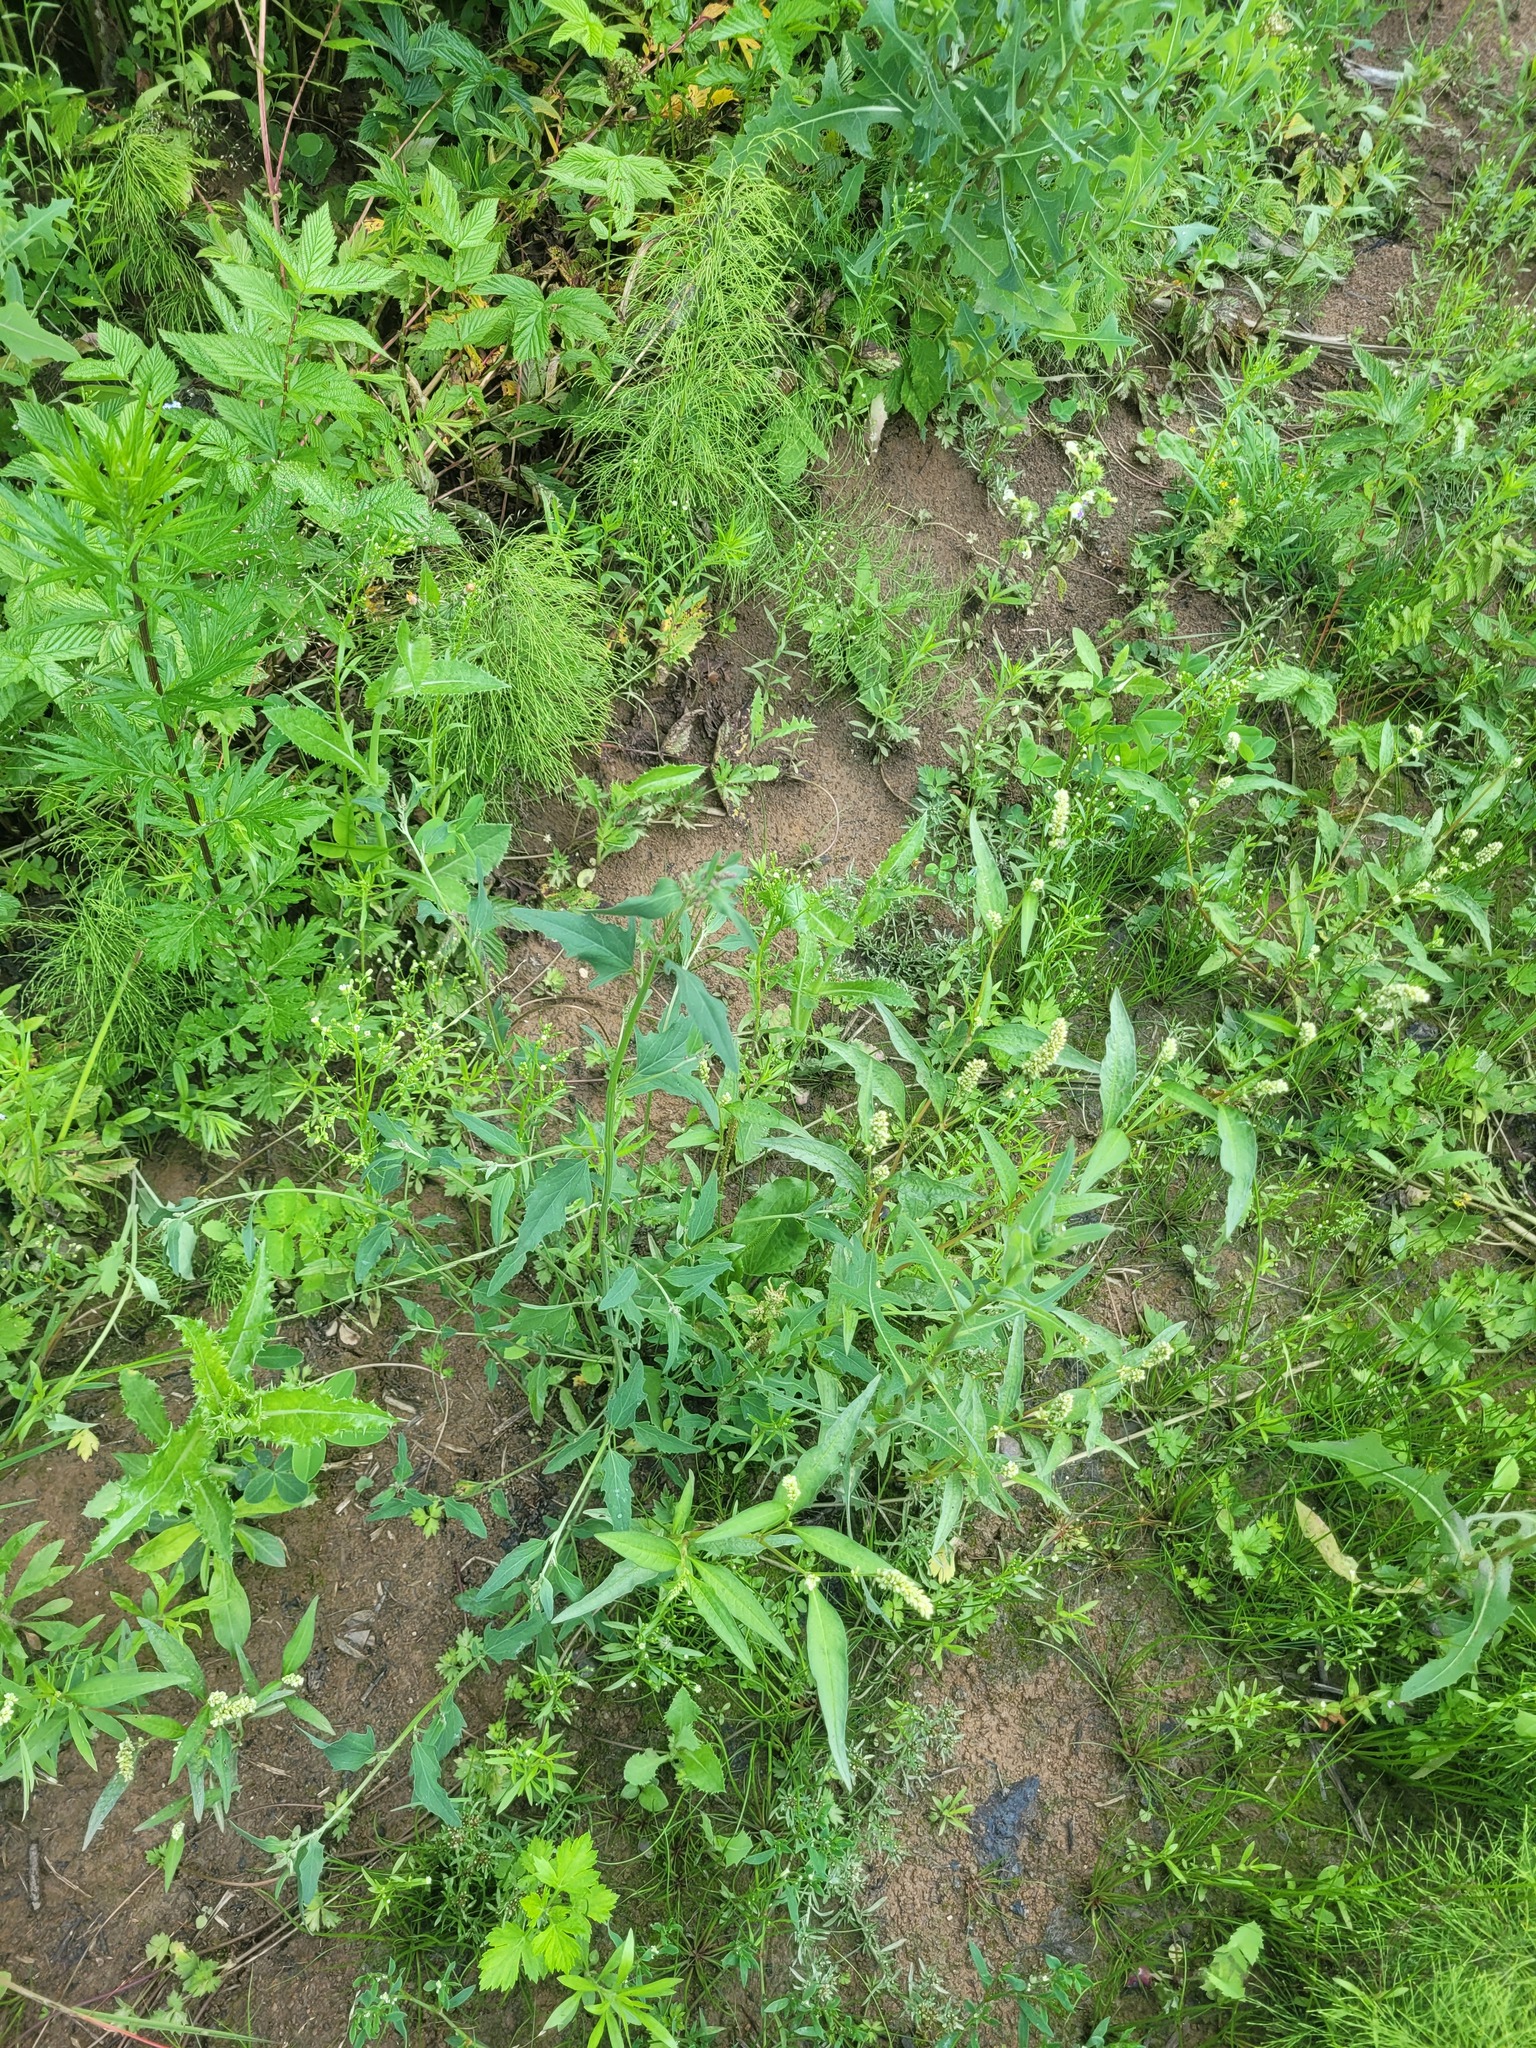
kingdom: Plantae
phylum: Tracheophyta
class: Magnoliopsida
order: Caryophyllales
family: Amaranthaceae
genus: Atriplex
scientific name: Atriplex patula
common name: Common orache
